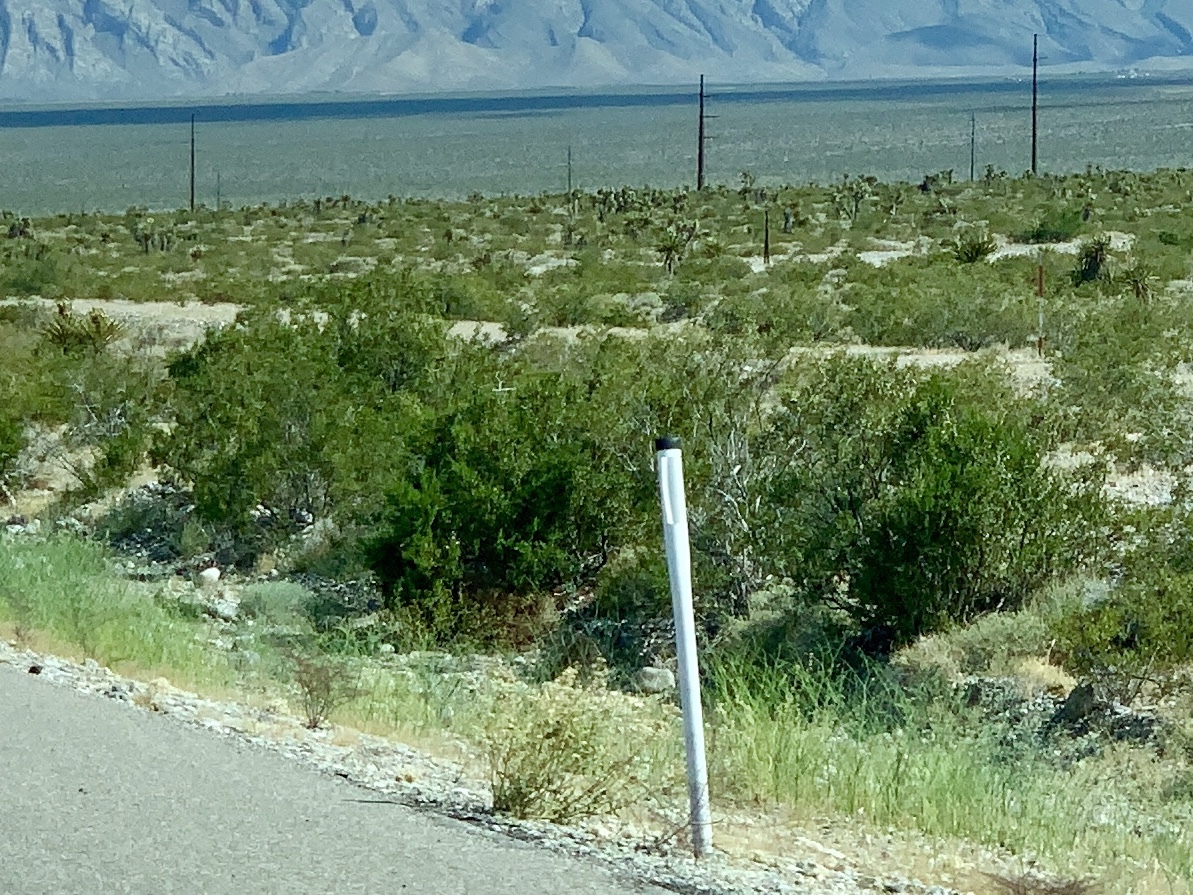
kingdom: Plantae
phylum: Tracheophyta
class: Magnoliopsida
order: Zygophyllales
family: Zygophyllaceae
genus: Larrea
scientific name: Larrea tridentata
